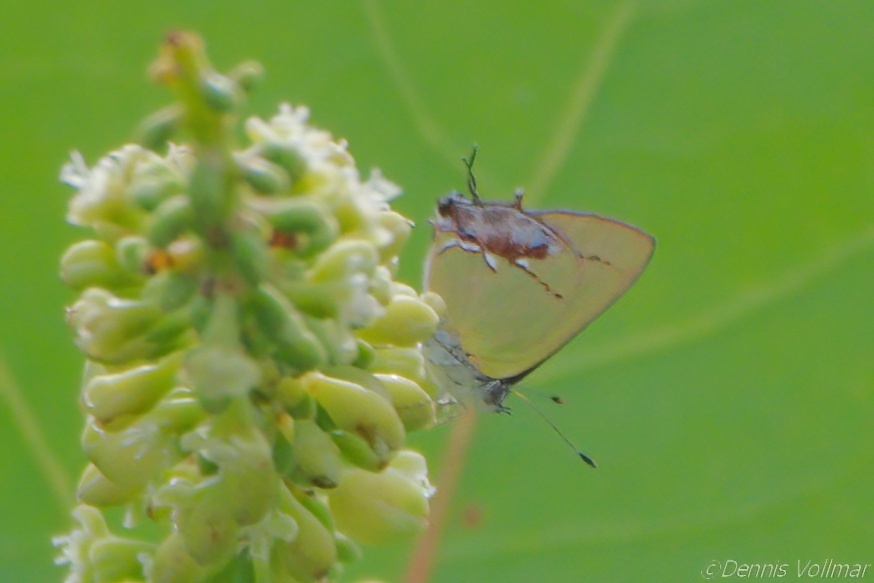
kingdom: Animalia
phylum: Arthropoda
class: Insecta
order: Lepidoptera
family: Lycaenidae
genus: Thecla
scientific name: Thecla maesites
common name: Verde azul hairstreak
